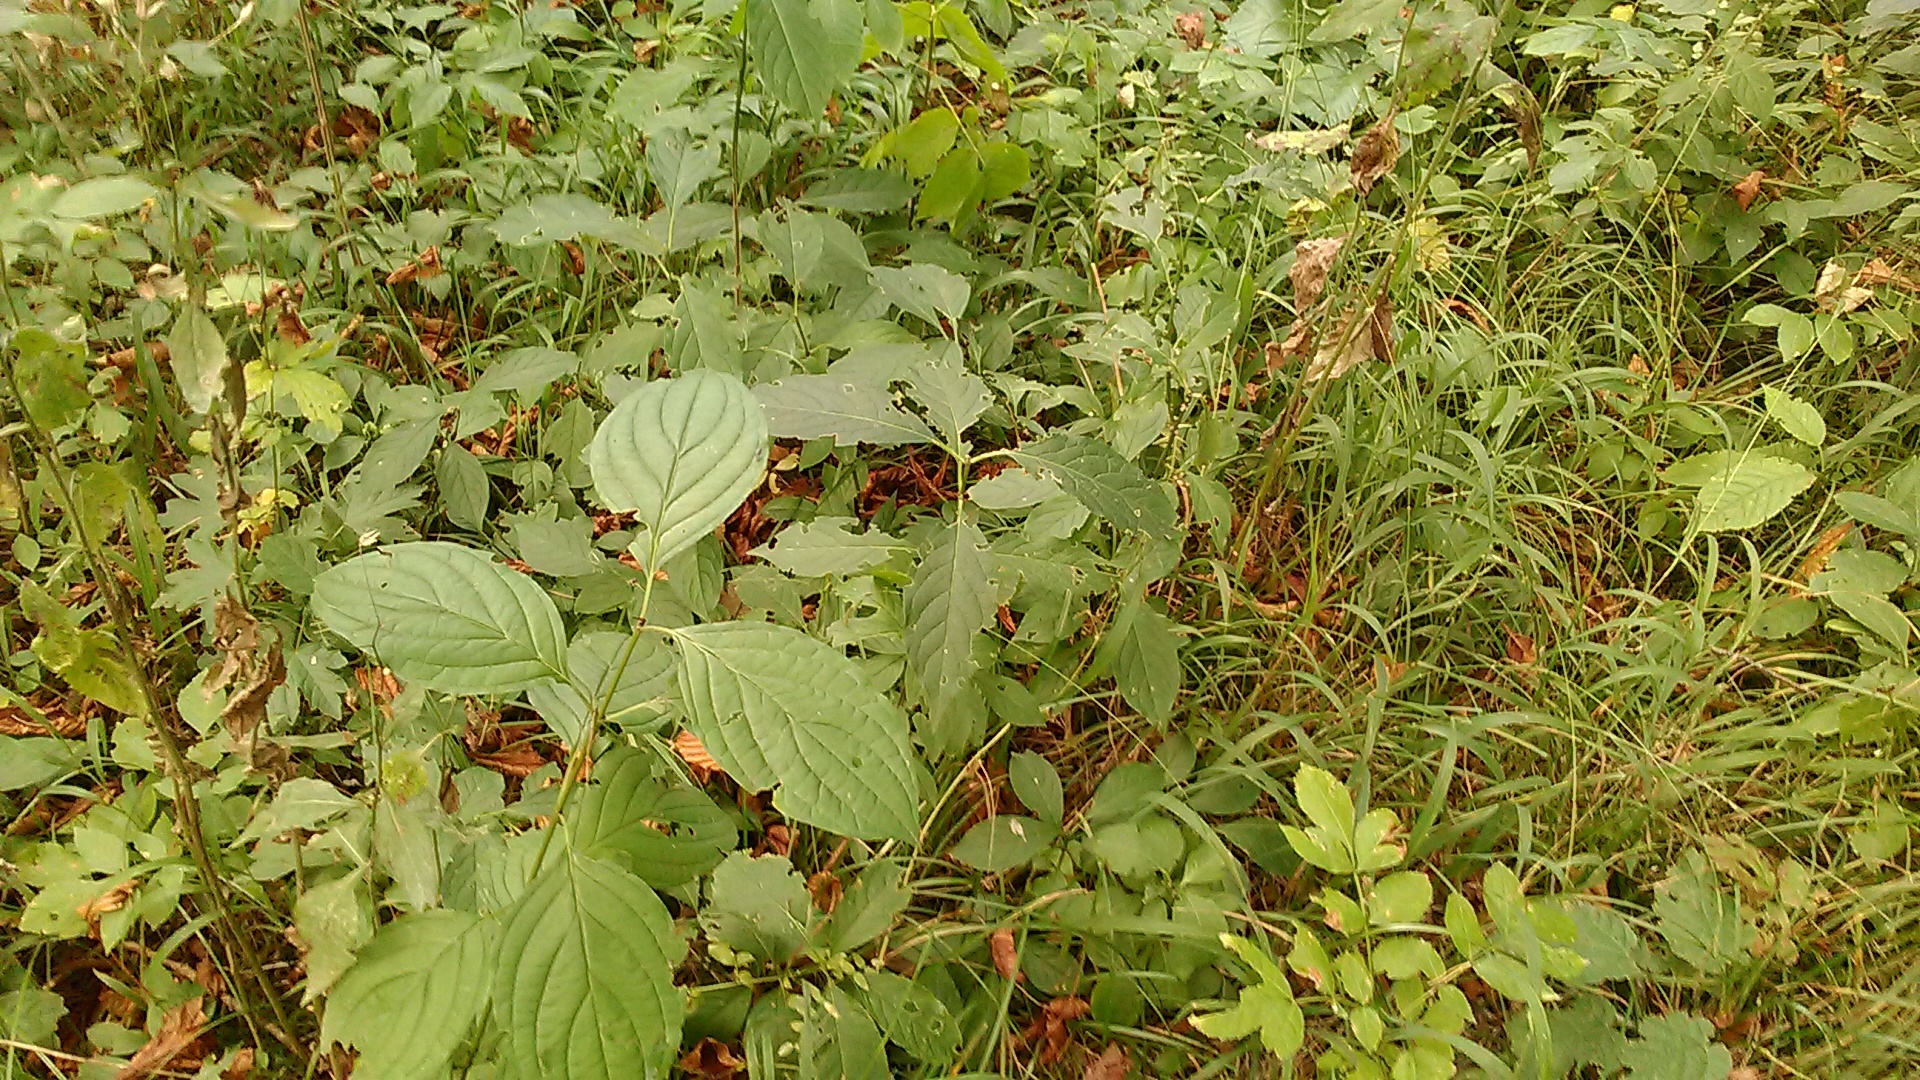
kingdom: Plantae
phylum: Tracheophyta
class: Magnoliopsida
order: Cornales
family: Cornaceae
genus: Cornus
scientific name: Cornus sanguinea
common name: Dogwood
